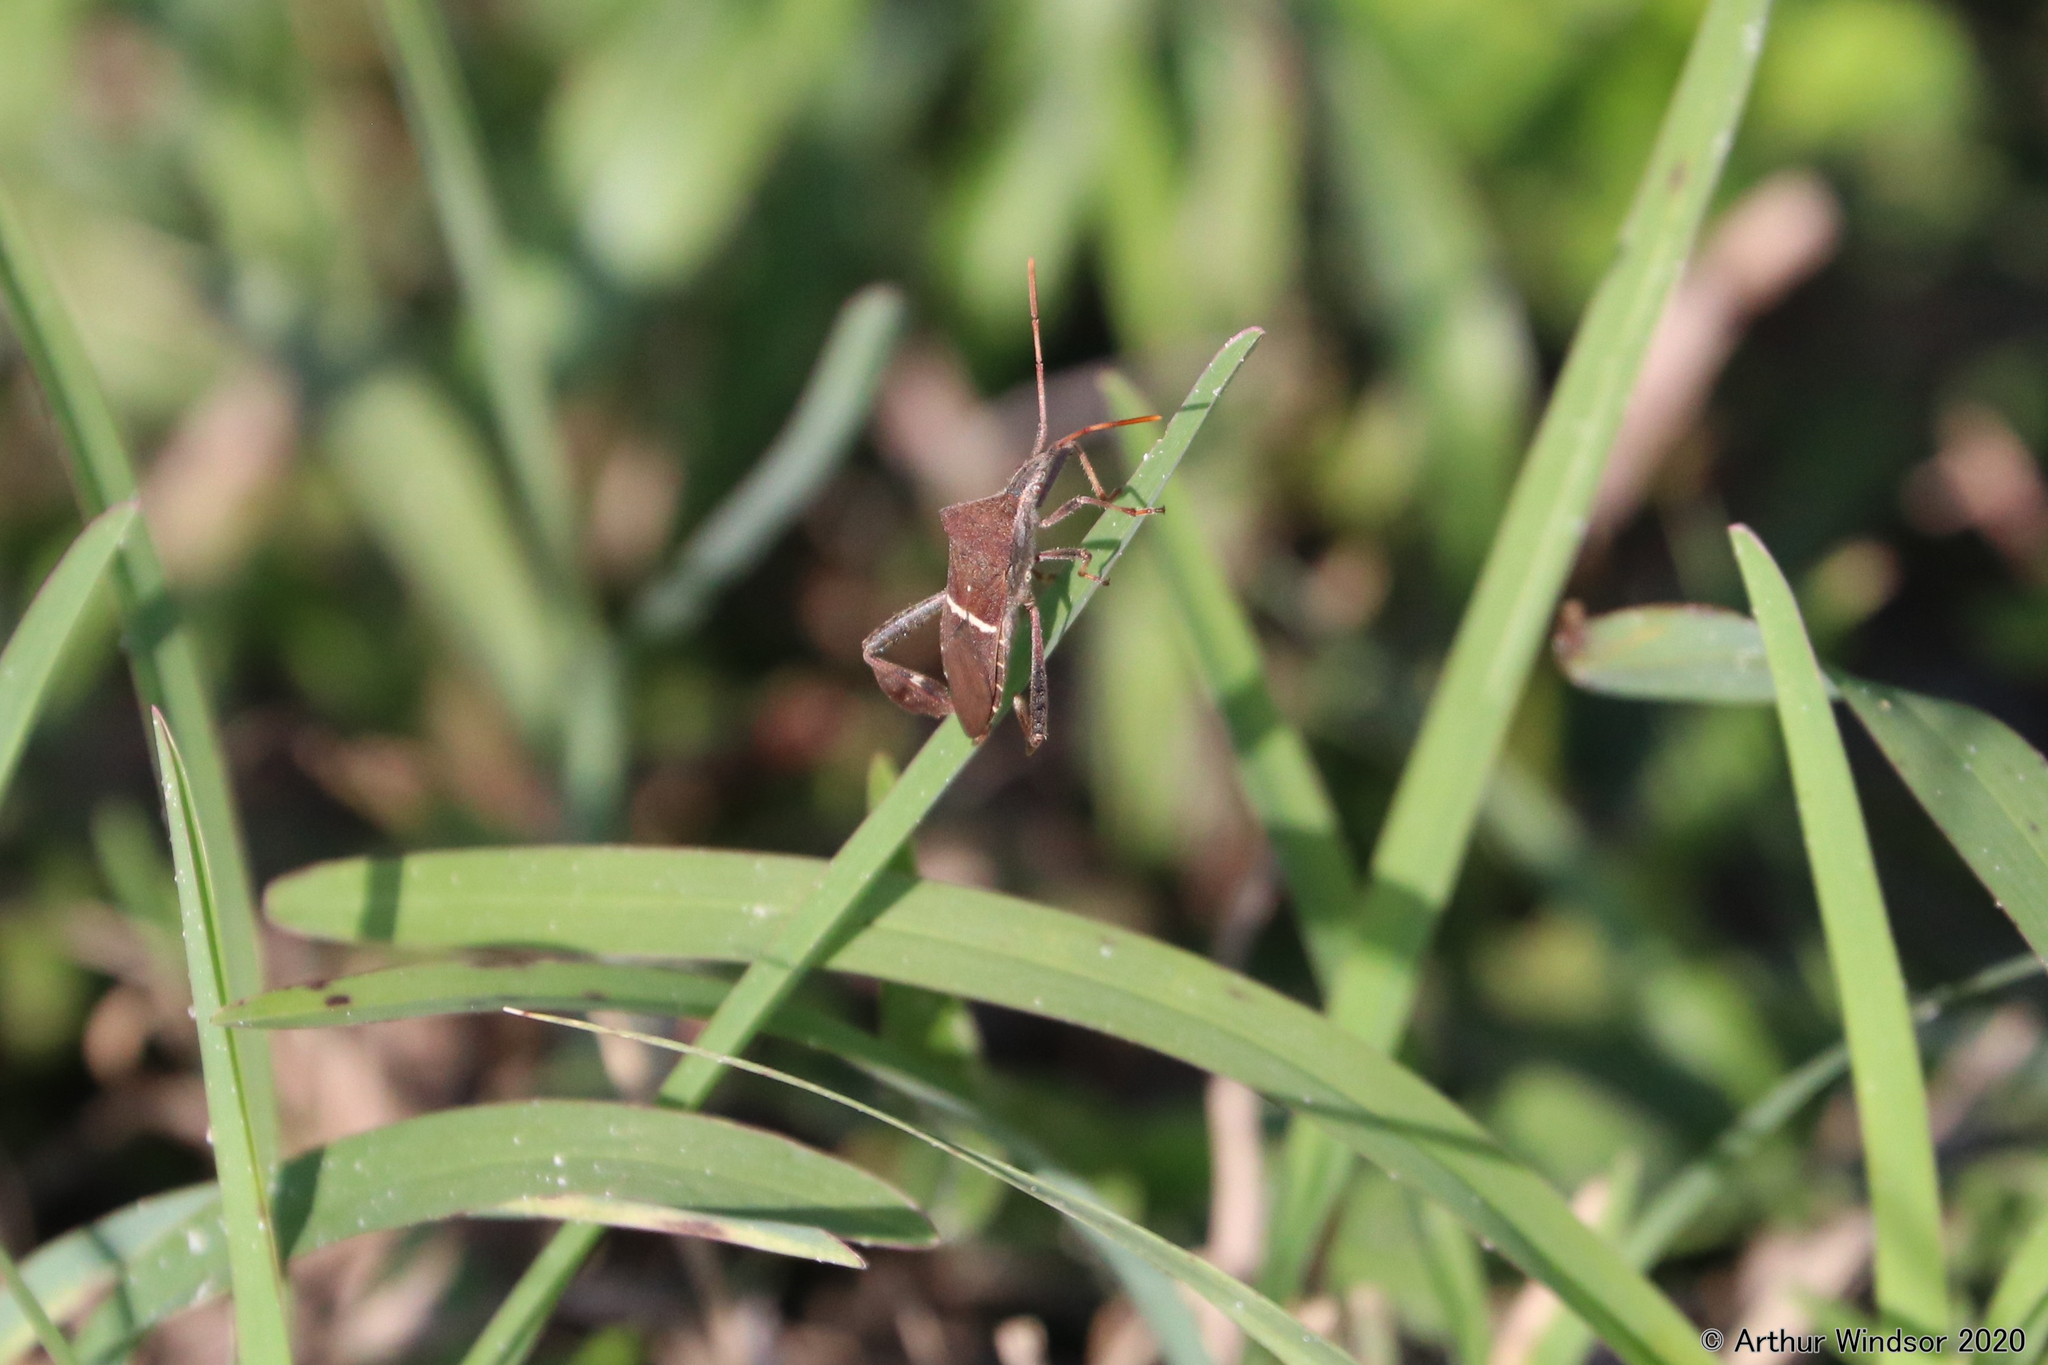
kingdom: Animalia
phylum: Arthropoda
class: Insecta
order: Hemiptera
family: Coreidae
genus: Leptoglossus
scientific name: Leptoglossus phyllopus
